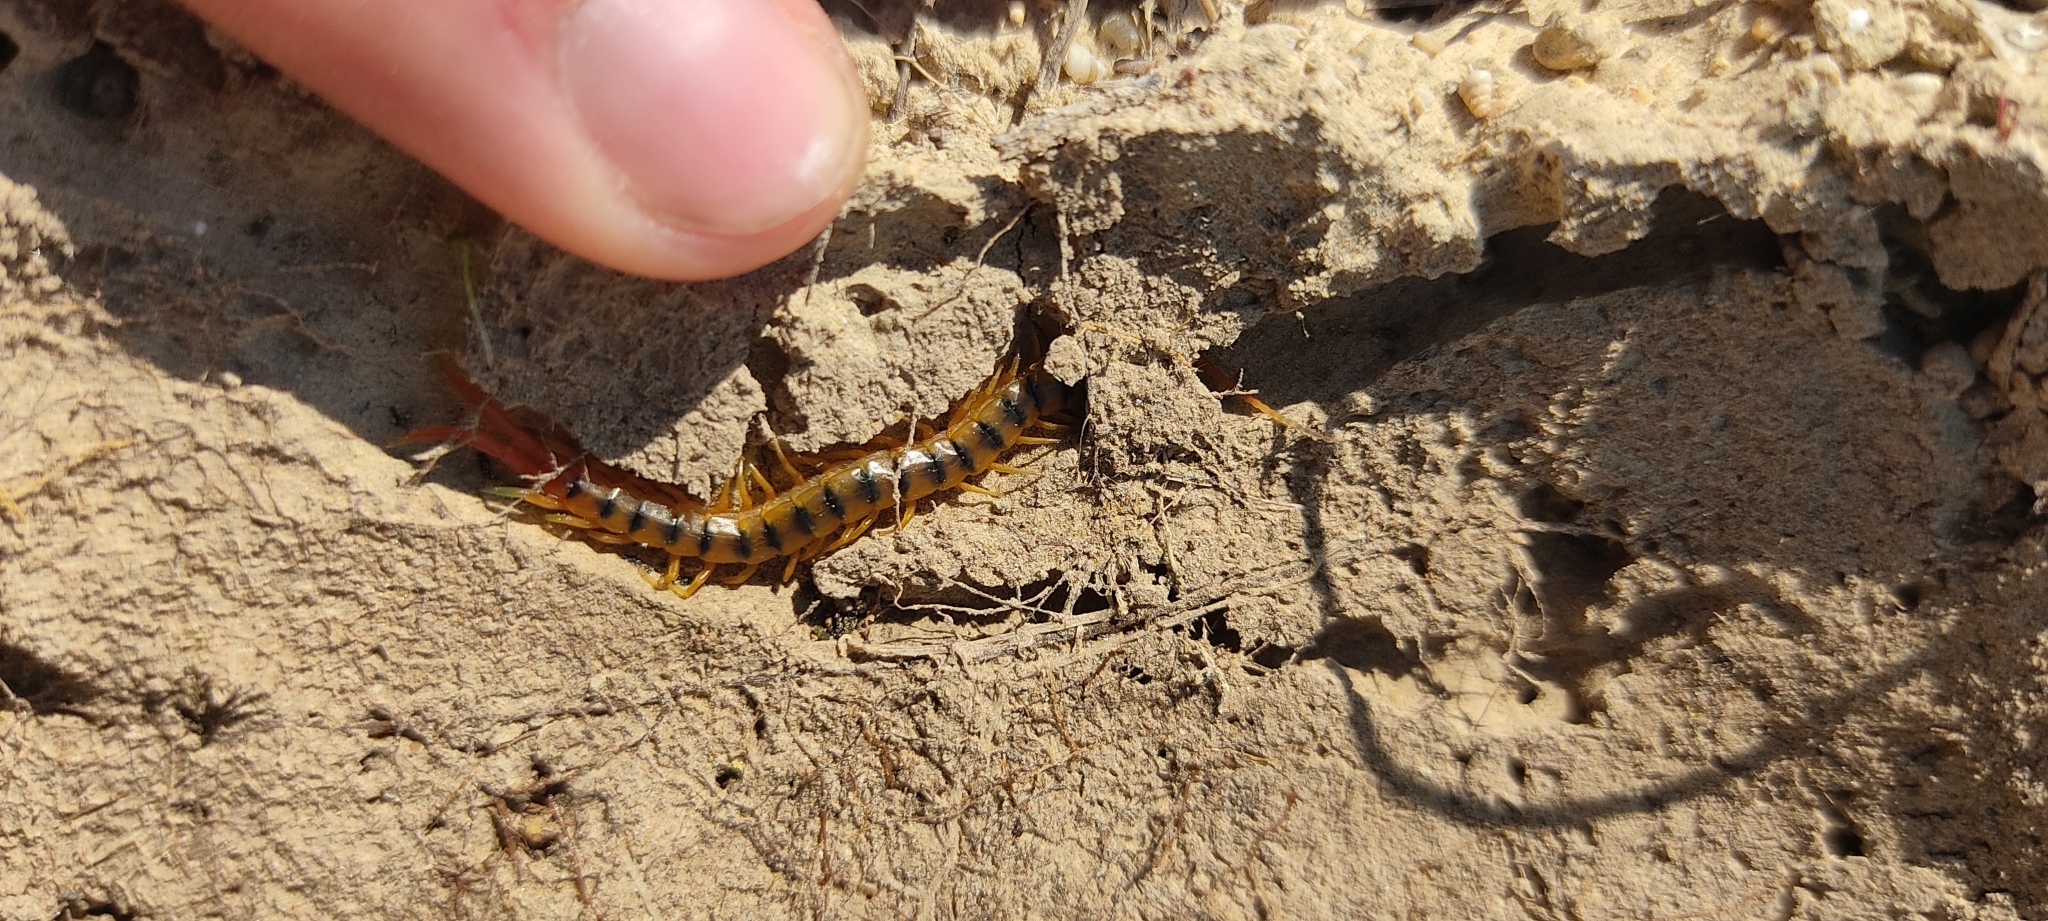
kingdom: Animalia
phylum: Arthropoda
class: Chilopoda
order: Scolopendromorpha
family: Scolopendridae
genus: Scolopendra
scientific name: Scolopendra cingulata
